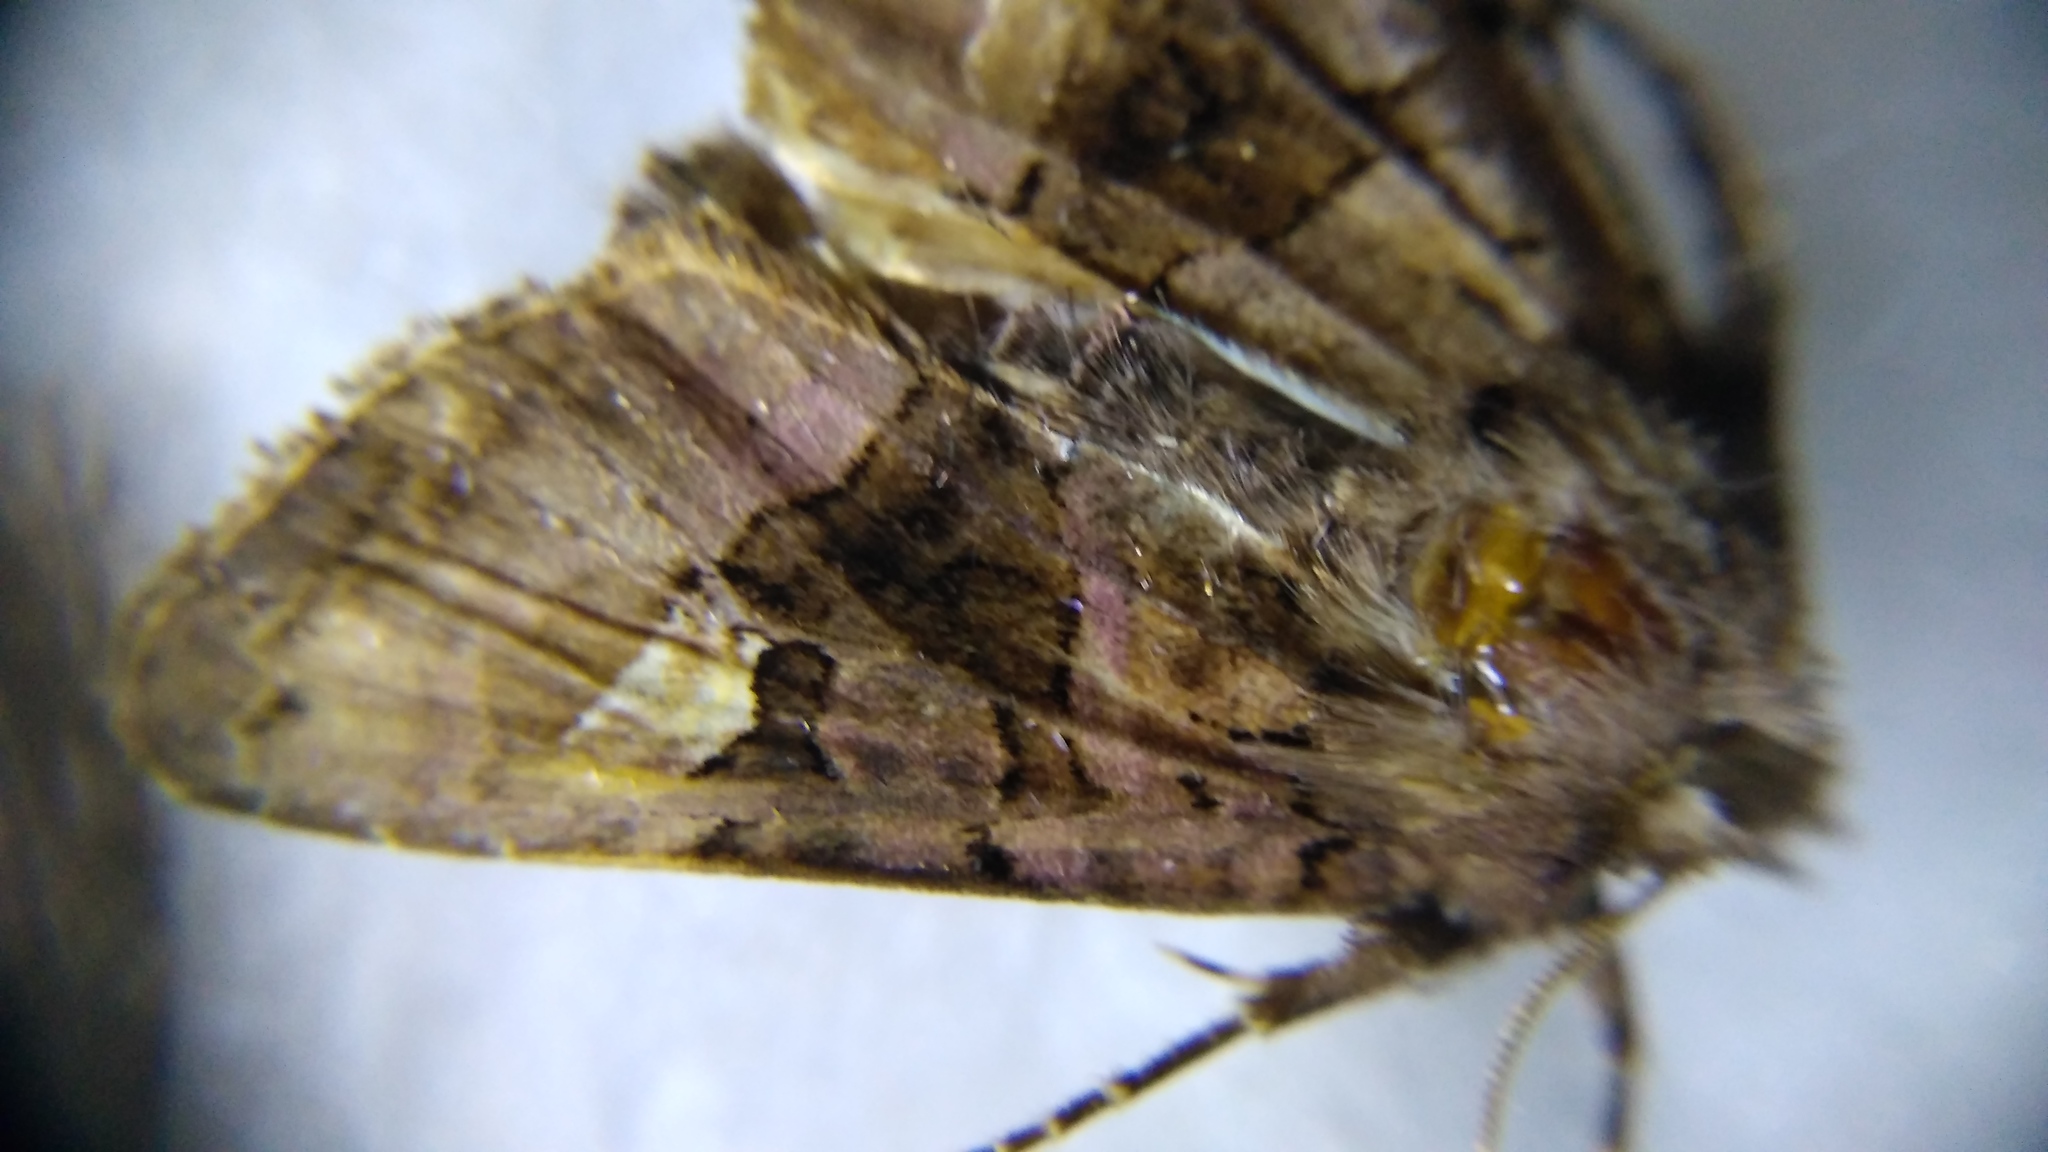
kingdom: Animalia
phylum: Arthropoda
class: Insecta
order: Lepidoptera
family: Noctuidae
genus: Euplexia
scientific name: Euplexia lucipara
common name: Small angle shades
